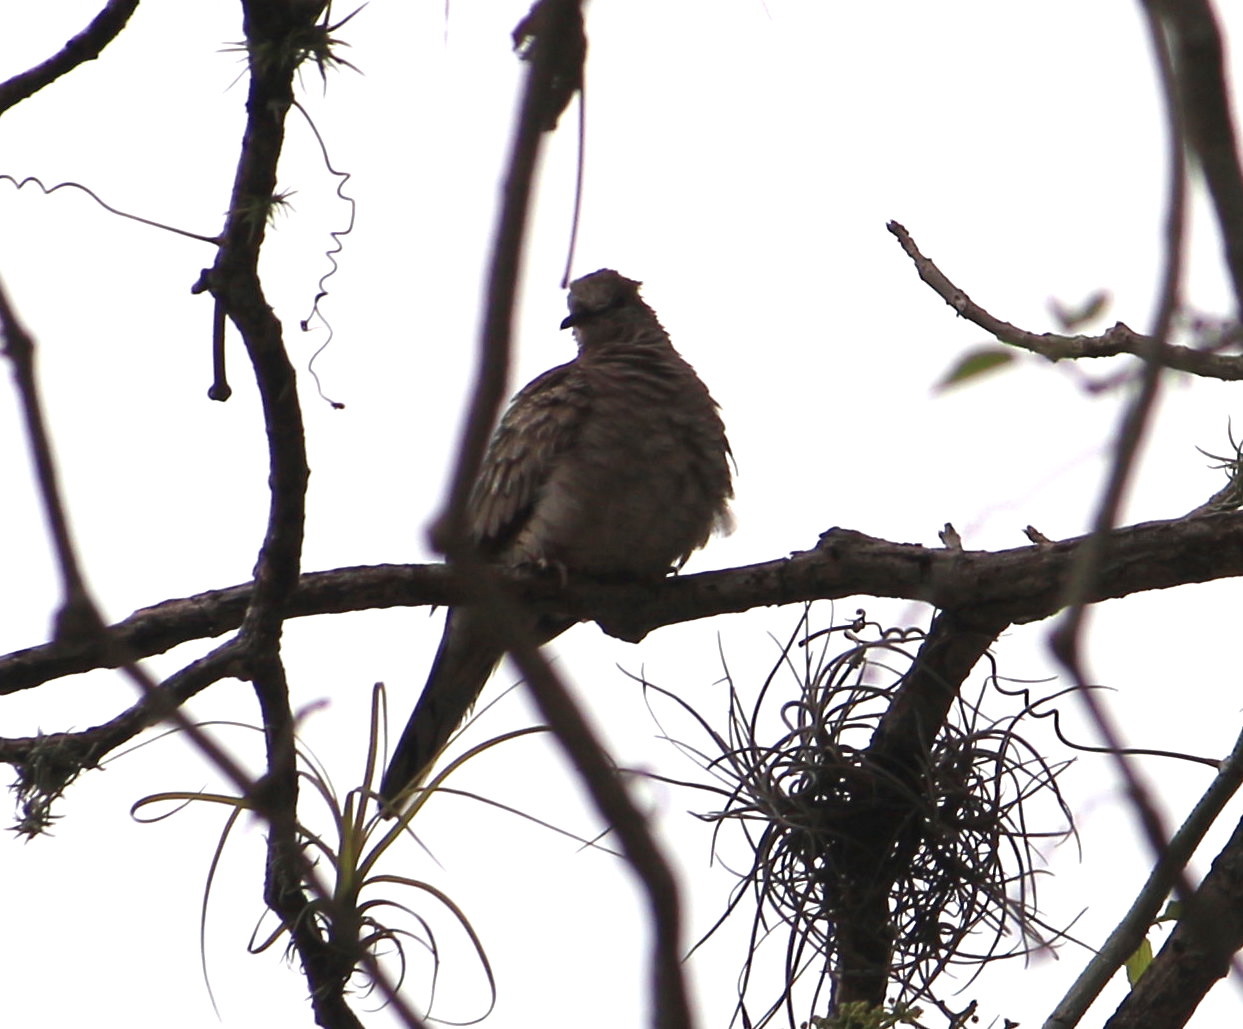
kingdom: Animalia
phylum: Chordata
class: Aves
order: Columbiformes
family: Columbidae
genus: Columbina
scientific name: Columbina inca
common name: Inca dove
